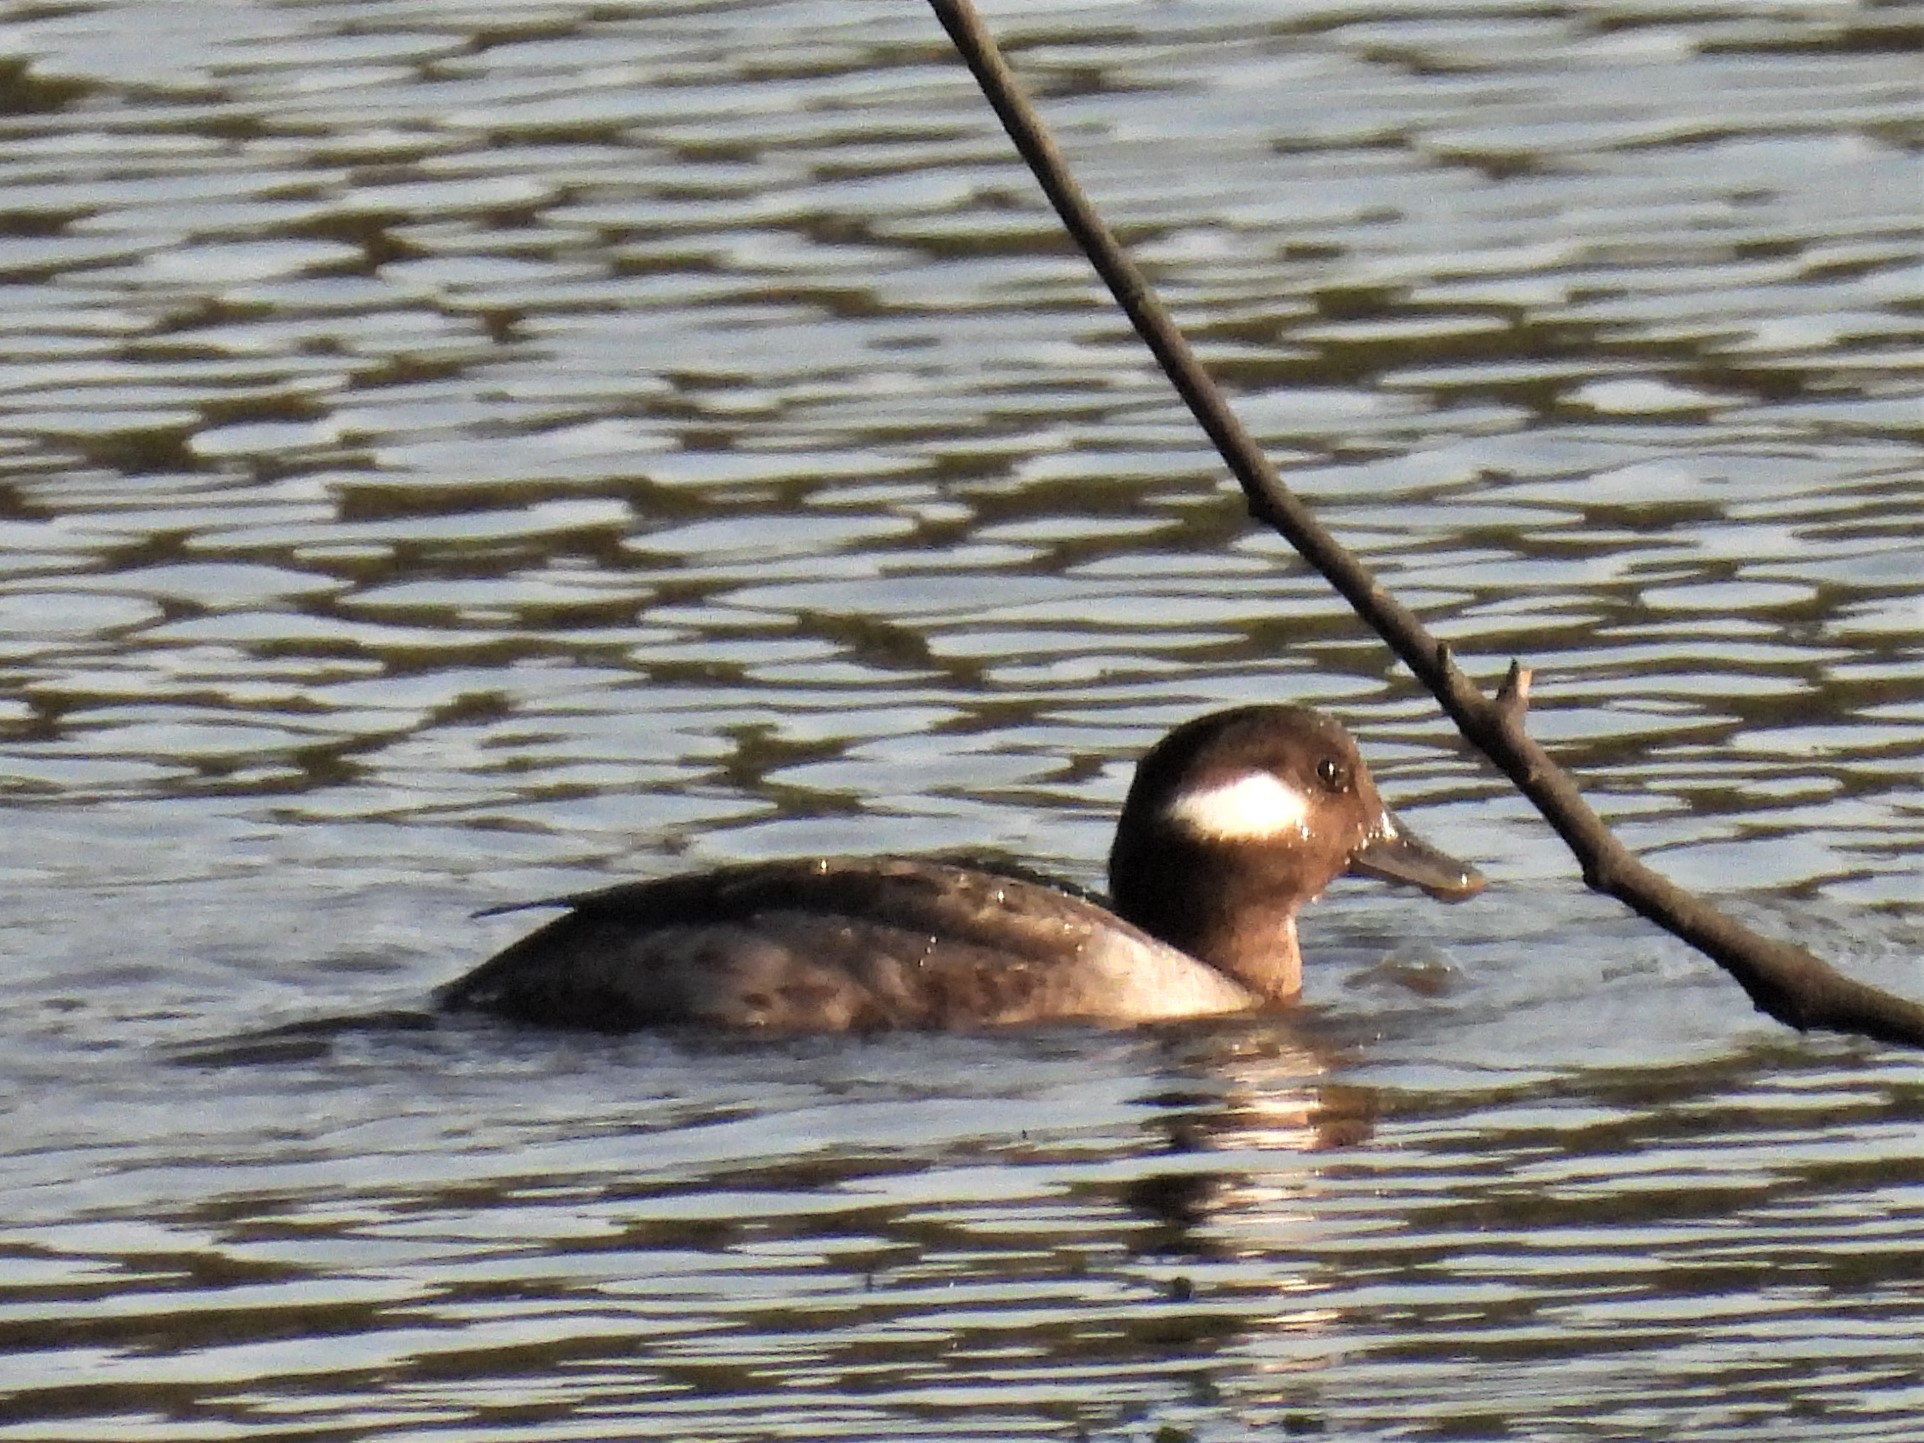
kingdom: Animalia
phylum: Chordata
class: Aves
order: Anseriformes
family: Anatidae
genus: Bucephala
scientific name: Bucephala albeola
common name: Bufflehead
